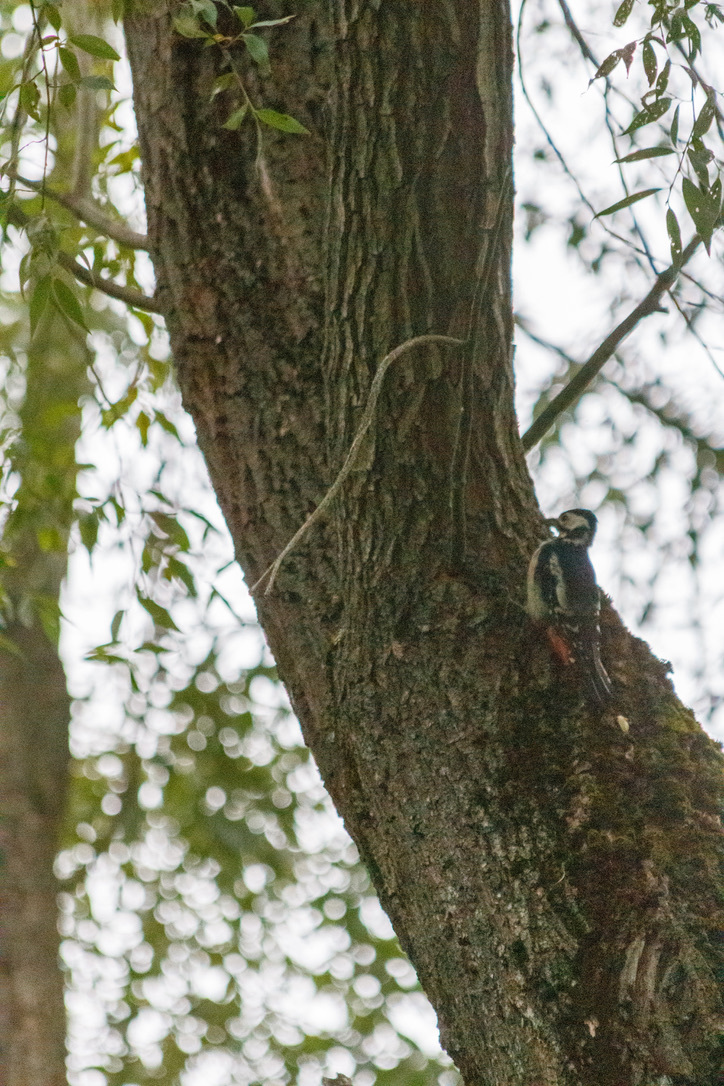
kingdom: Animalia
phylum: Chordata
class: Aves
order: Piciformes
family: Picidae
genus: Dendrocopos
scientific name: Dendrocopos major
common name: Great spotted woodpecker
